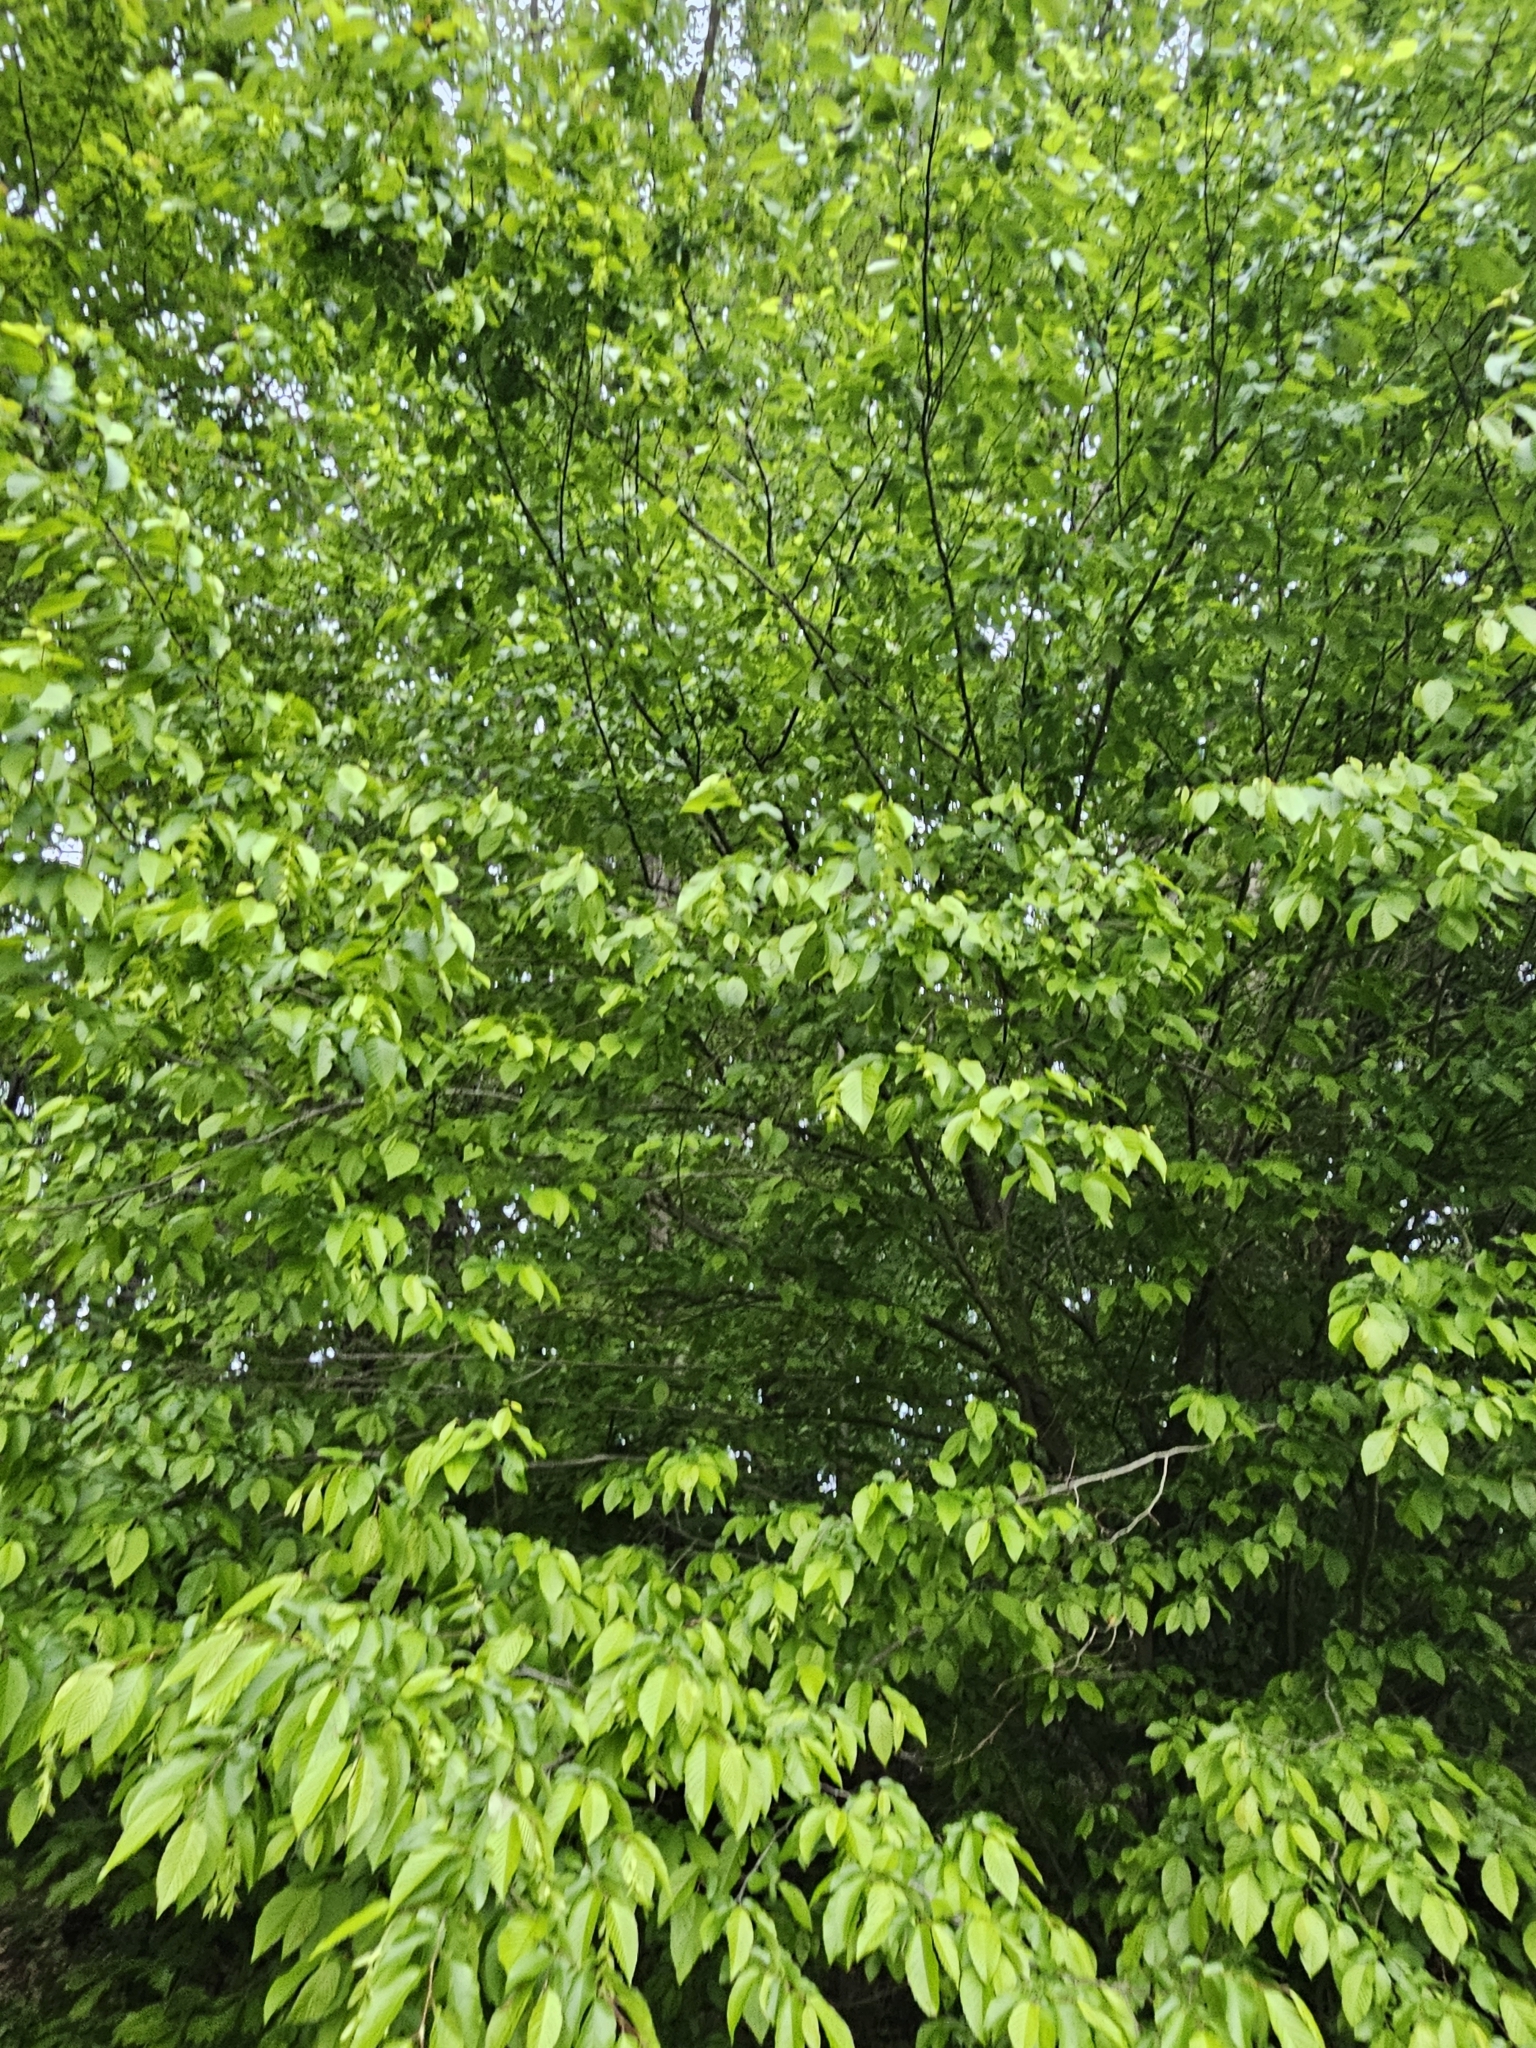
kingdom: Plantae
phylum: Tracheophyta
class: Magnoliopsida
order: Fagales
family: Betulaceae
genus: Carpinus
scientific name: Carpinus caroliniana
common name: American hornbeam
